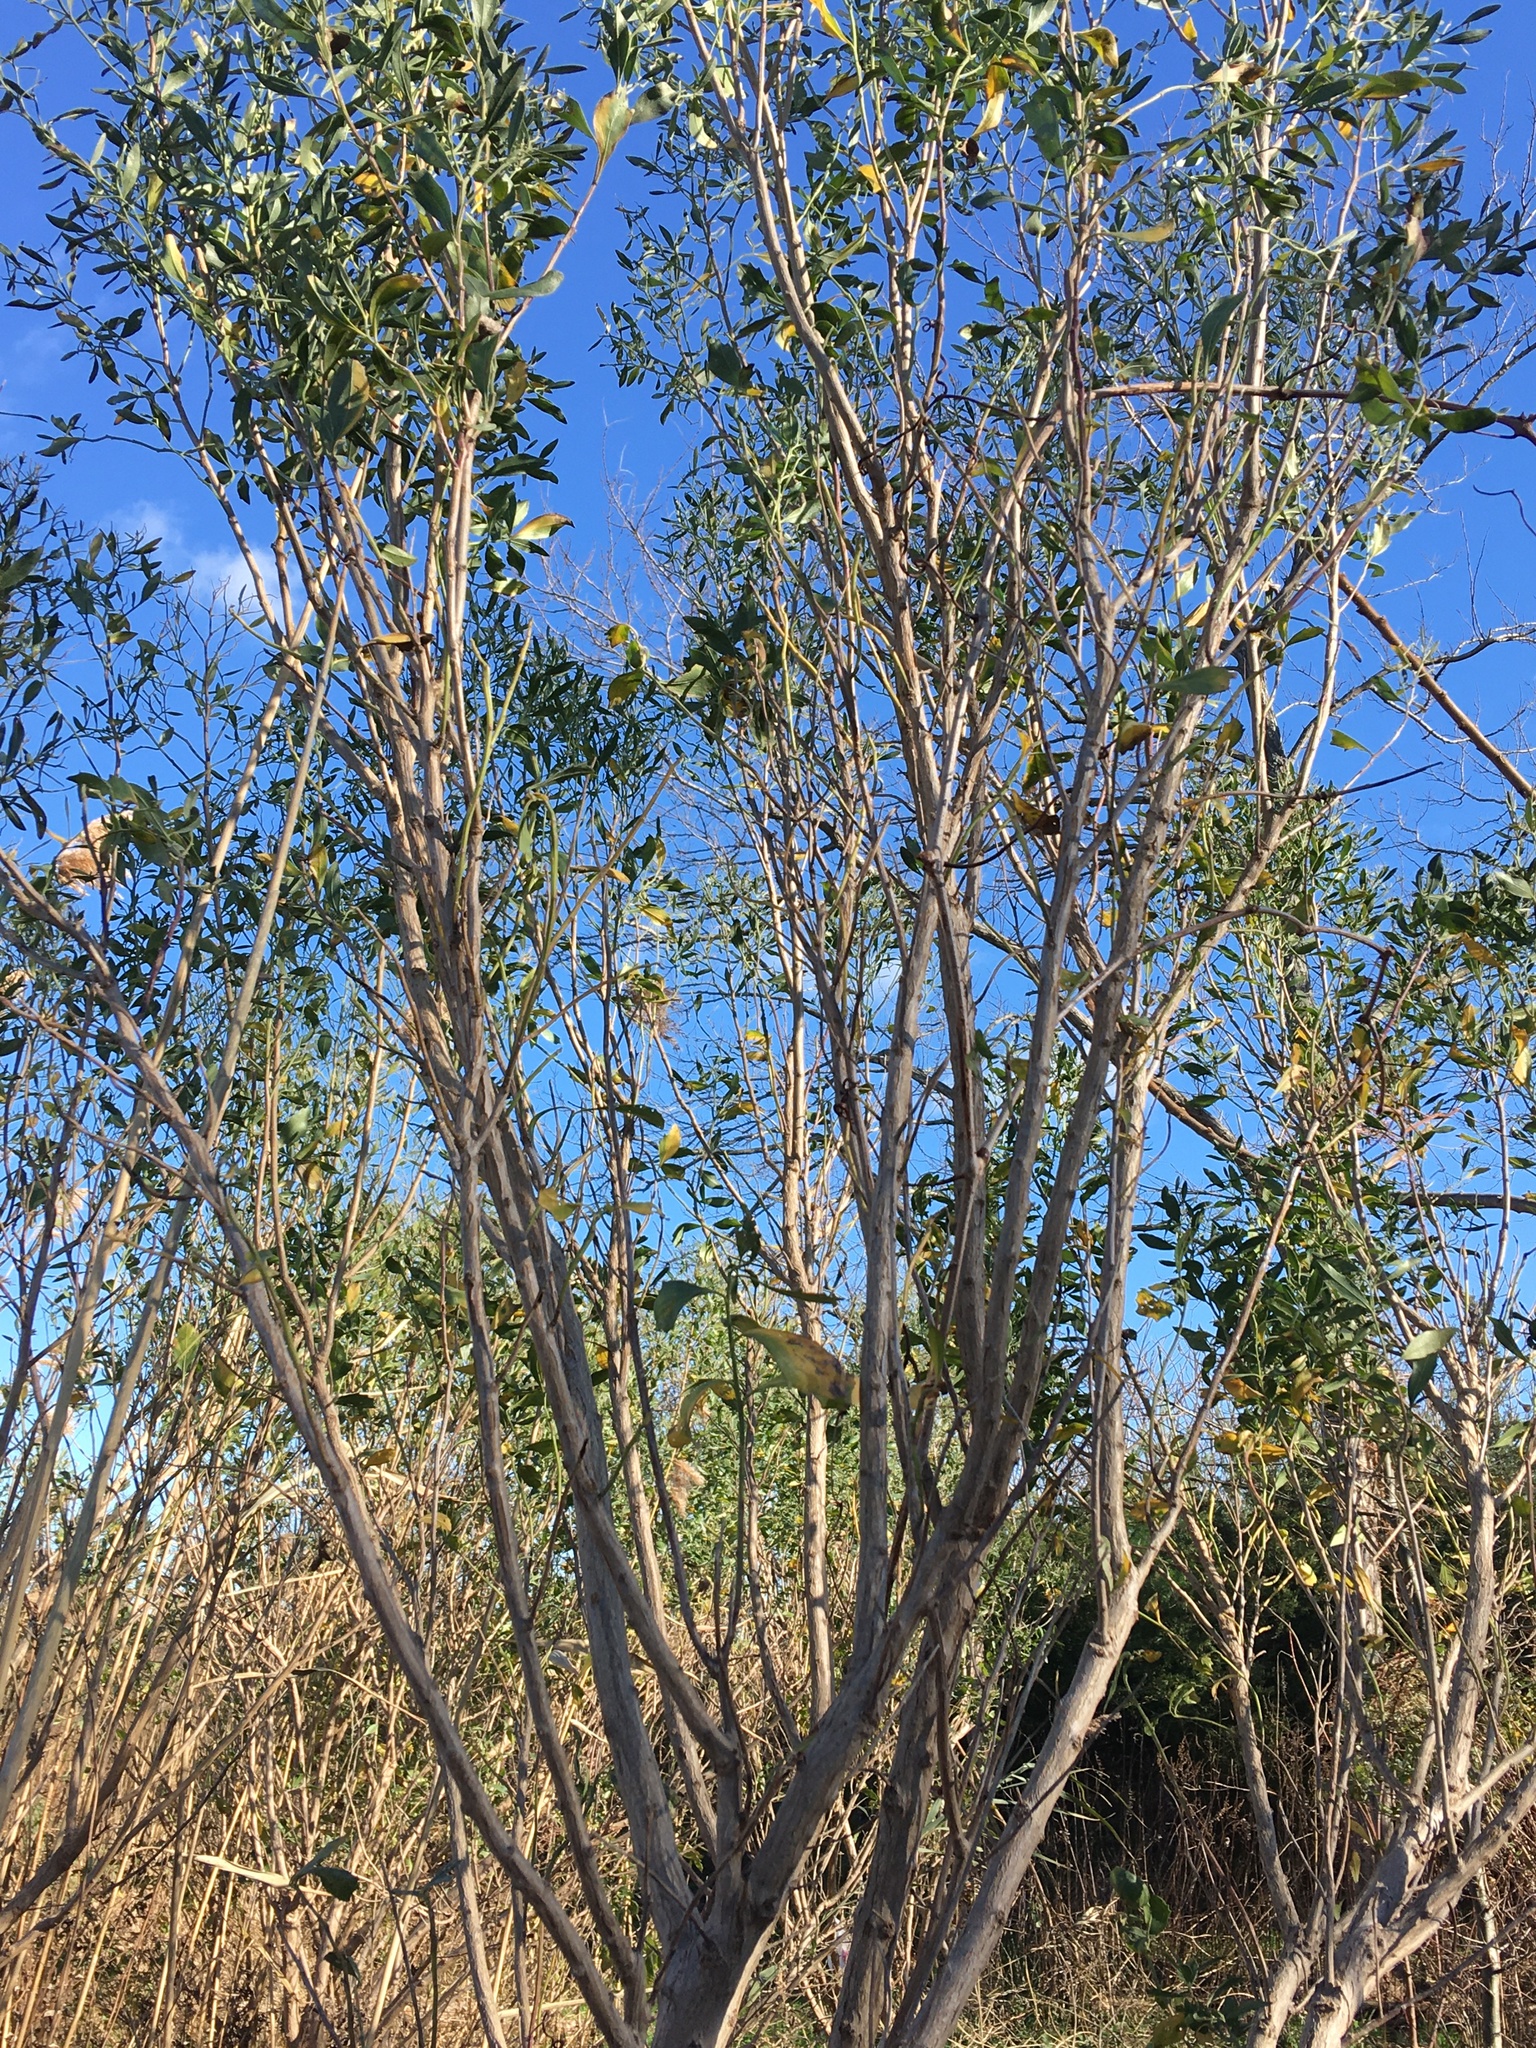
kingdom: Plantae
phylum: Tracheophyta
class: Magnoliopsida
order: Asterales
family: Asteraceae
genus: Baccharis
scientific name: Baccharis halimifolia
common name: Eastern baccharis
